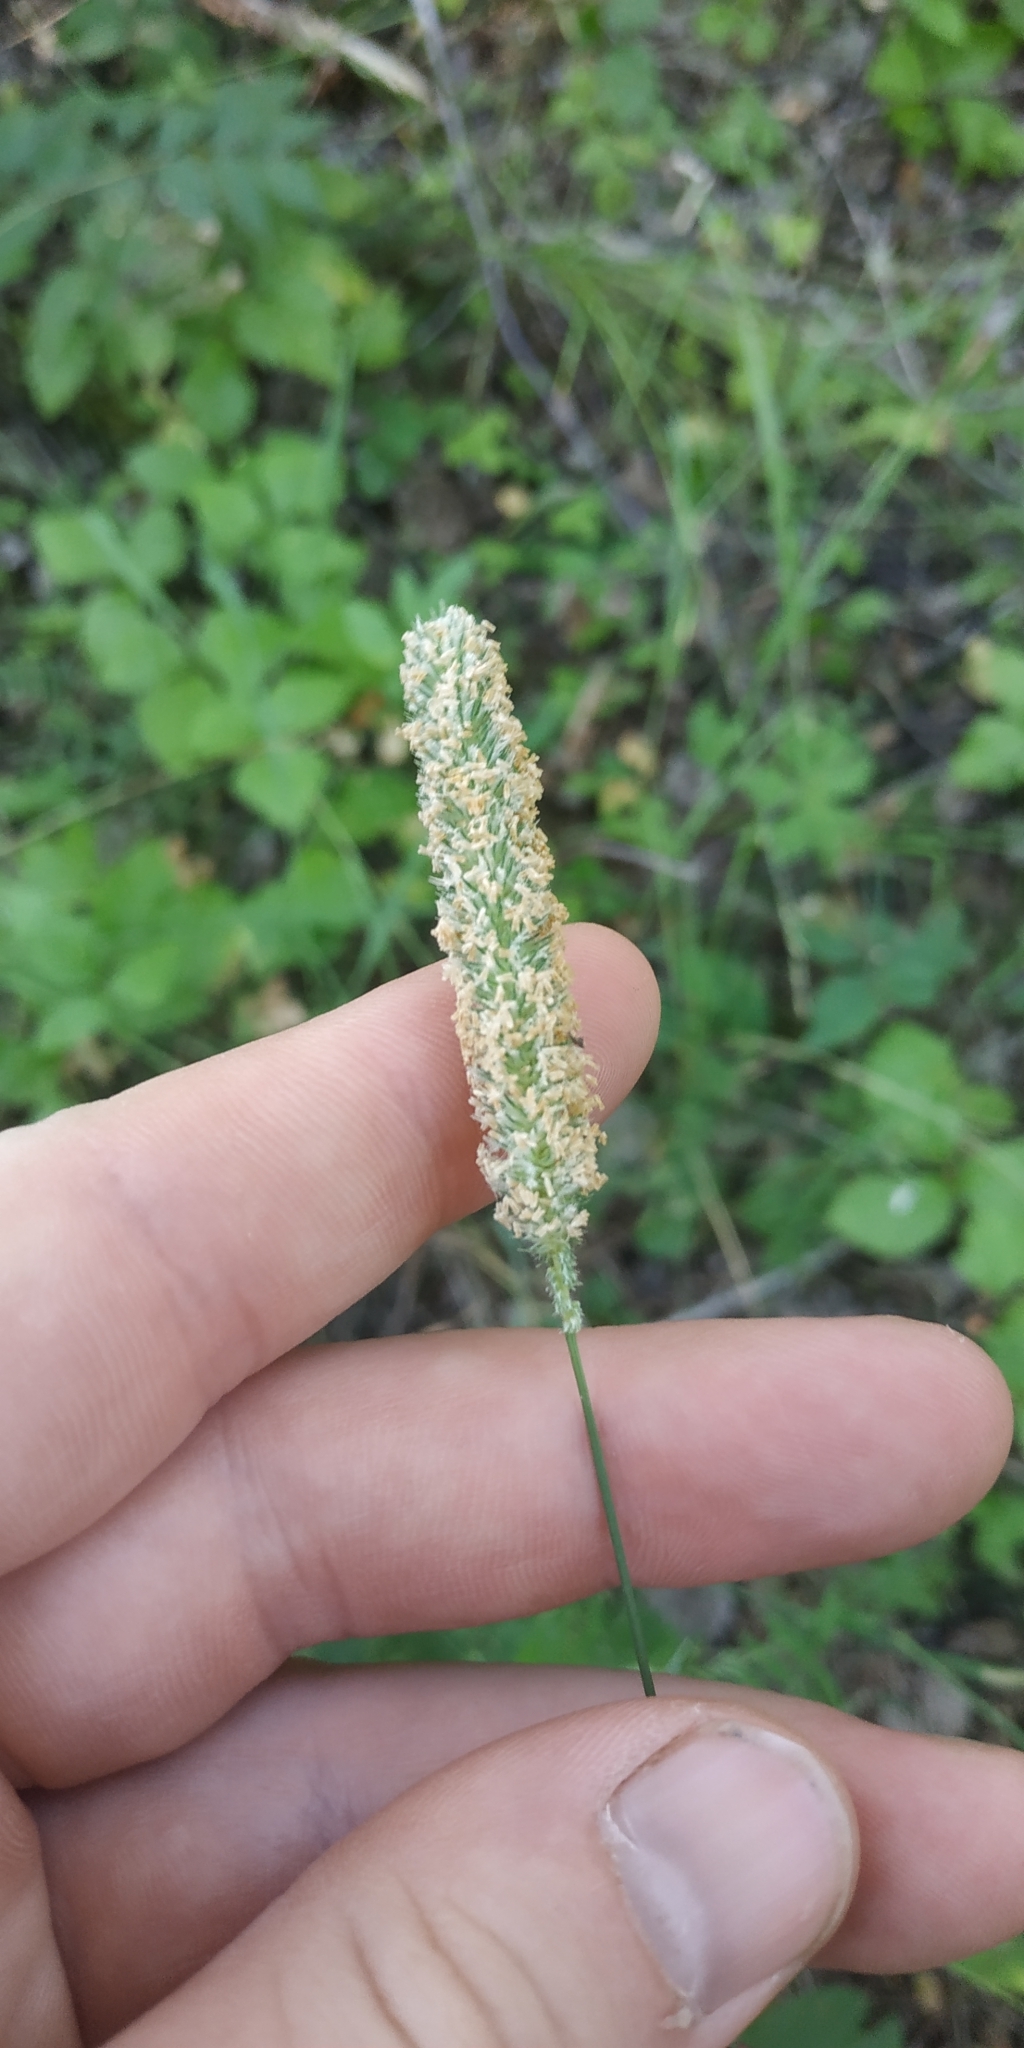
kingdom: Plantae
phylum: Tracheophyta
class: Liliopsida
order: Poales
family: Poaceae
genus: Phleum
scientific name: Phleum pratense
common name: Timothy grass
